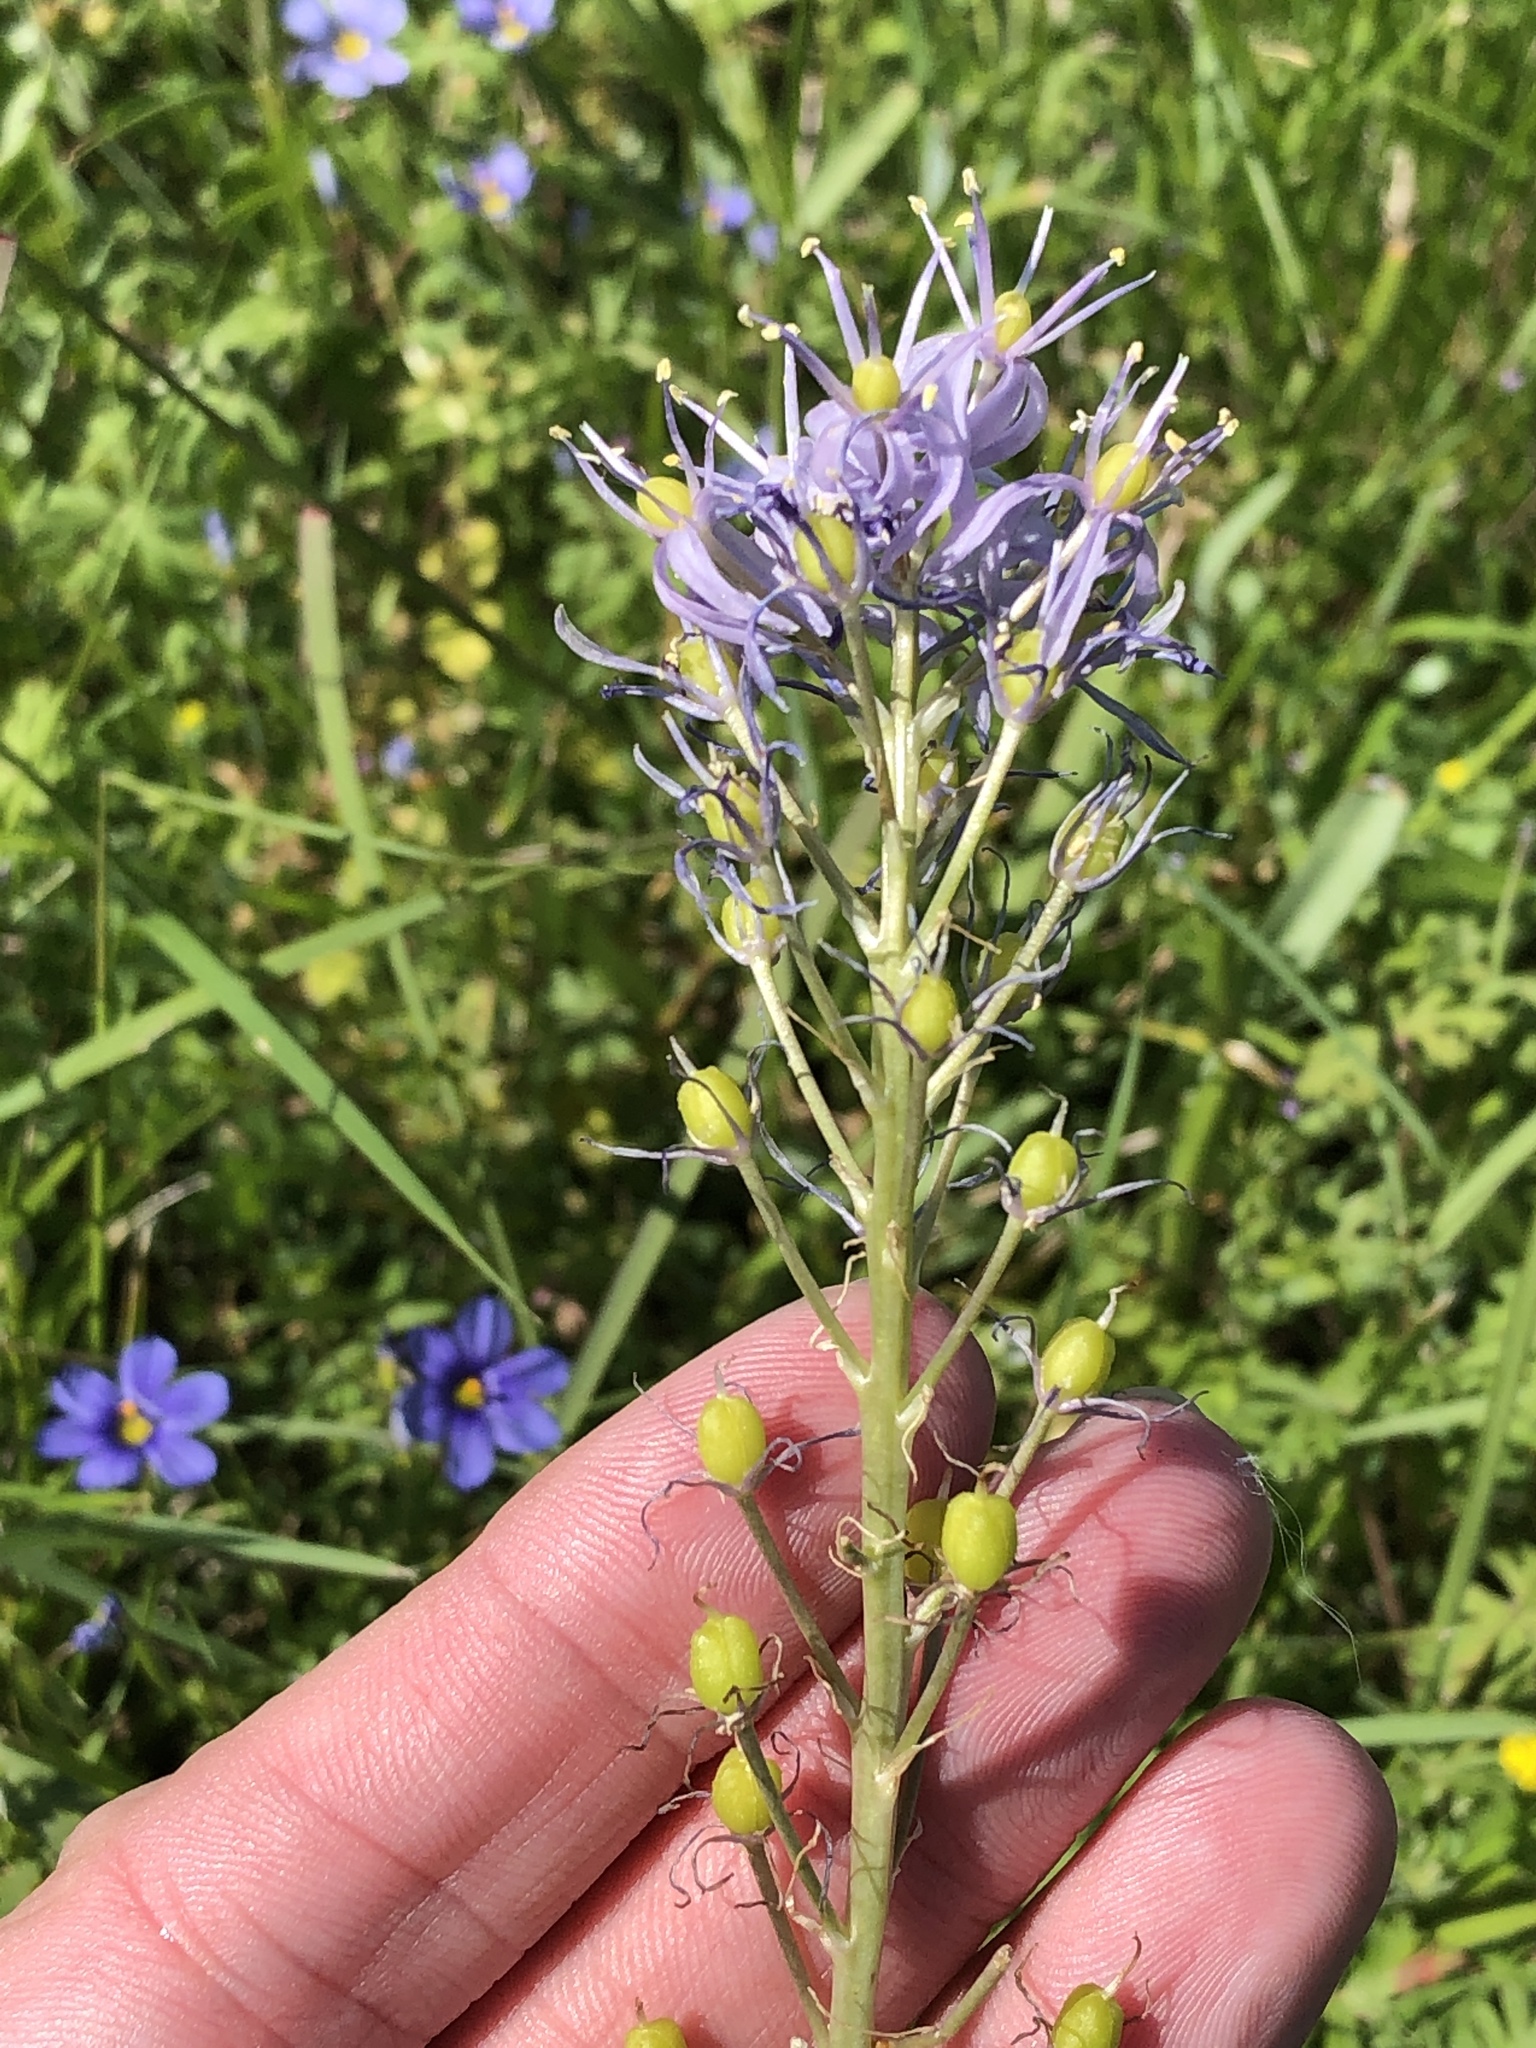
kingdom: Plantae
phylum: Tracheophyta
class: Liliopsida
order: Asparagales
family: Asparagaceae
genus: Camassia
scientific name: Camassia scilloides
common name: Wild hyacinth
